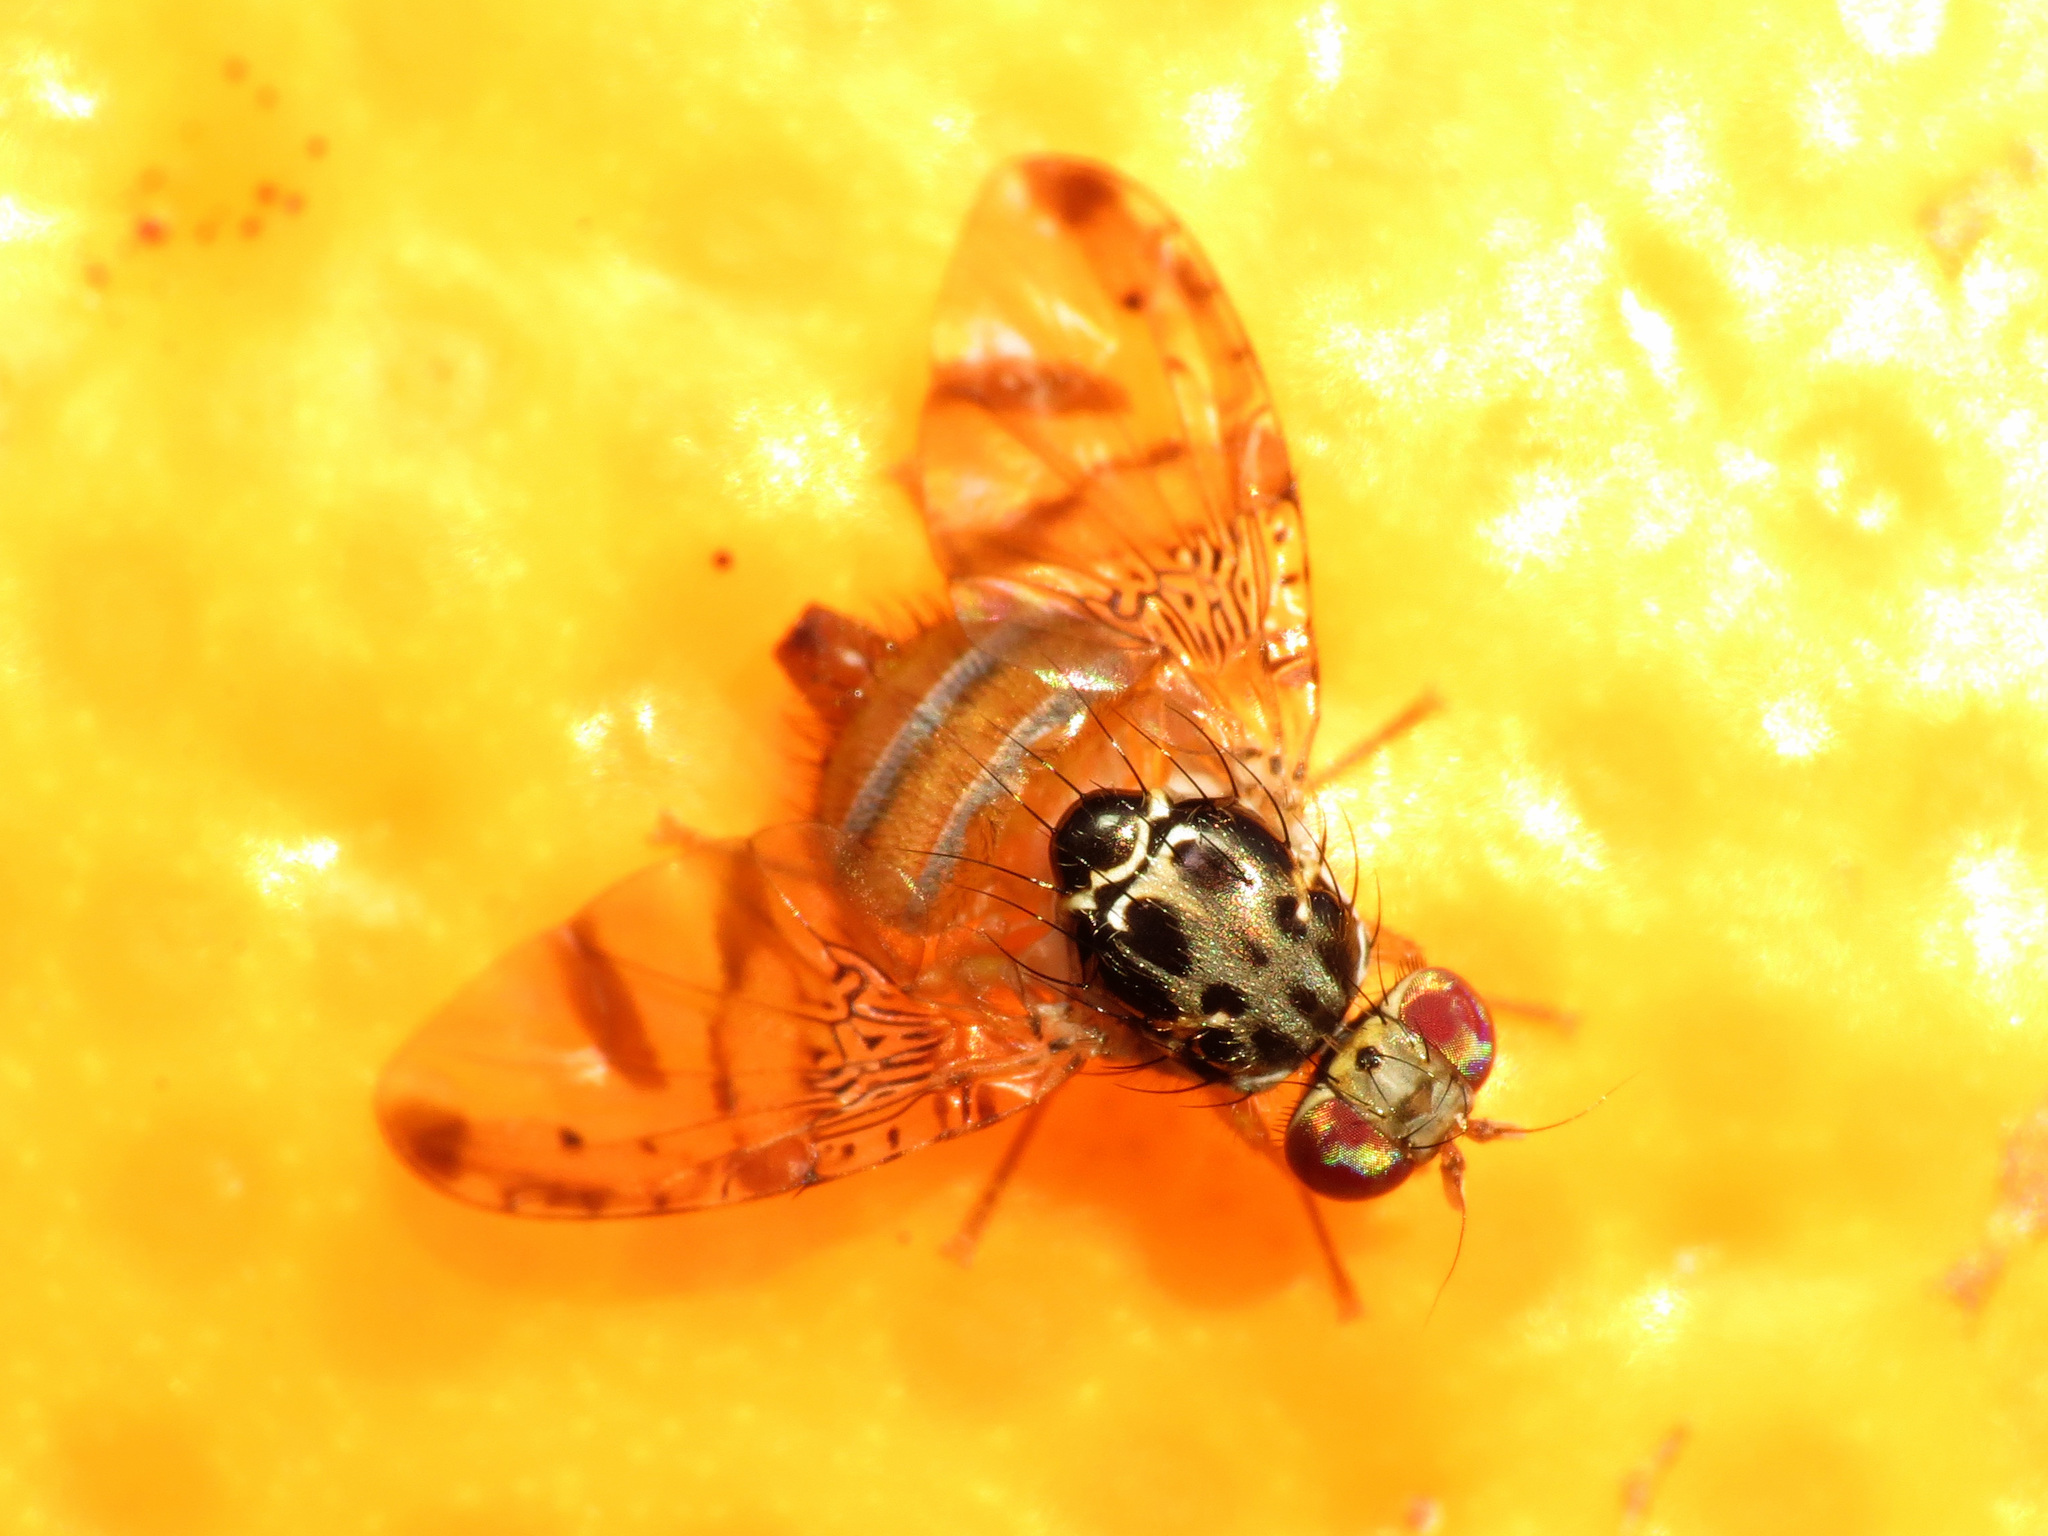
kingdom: Animalia
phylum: Arthropoda
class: Insecta
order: Diptera
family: Tephritidae
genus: Ceratitis
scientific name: Ceratitis capitata
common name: Mediterranean fruit fly
